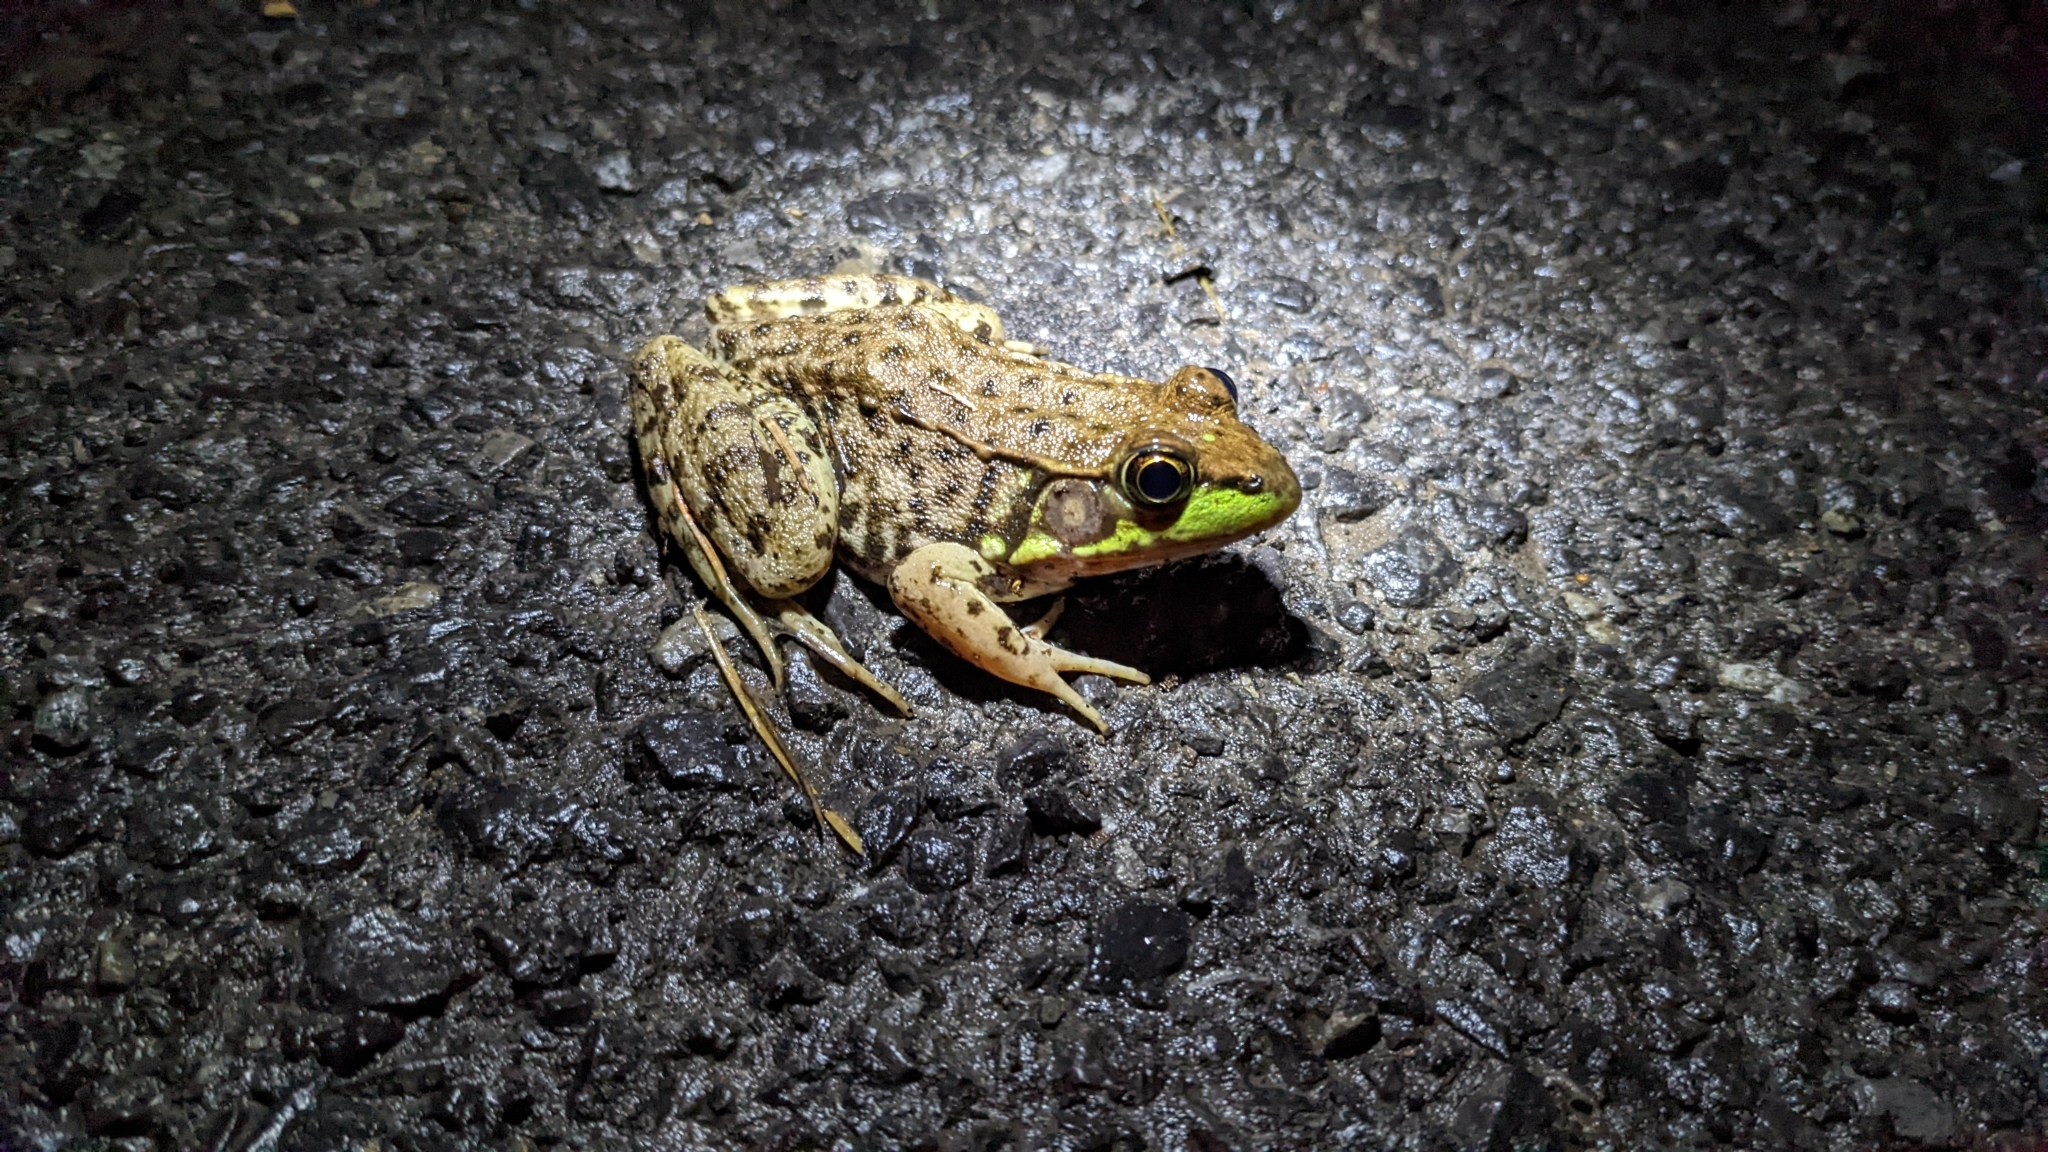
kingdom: Animalia
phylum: Chordata
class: Amphibia
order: Anura
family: Ranidae
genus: Lithobates
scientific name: Lithobates clamitans
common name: Green frog
